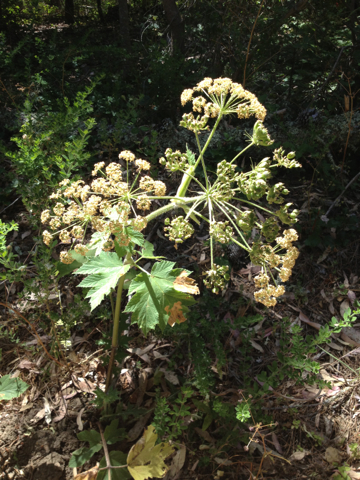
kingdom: Plantae
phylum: Tracheophyta
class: Magnoliopsida
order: Apiales
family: Apiaceae
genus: Heracleum
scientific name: Heracleum maximum
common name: American cow parsnip
